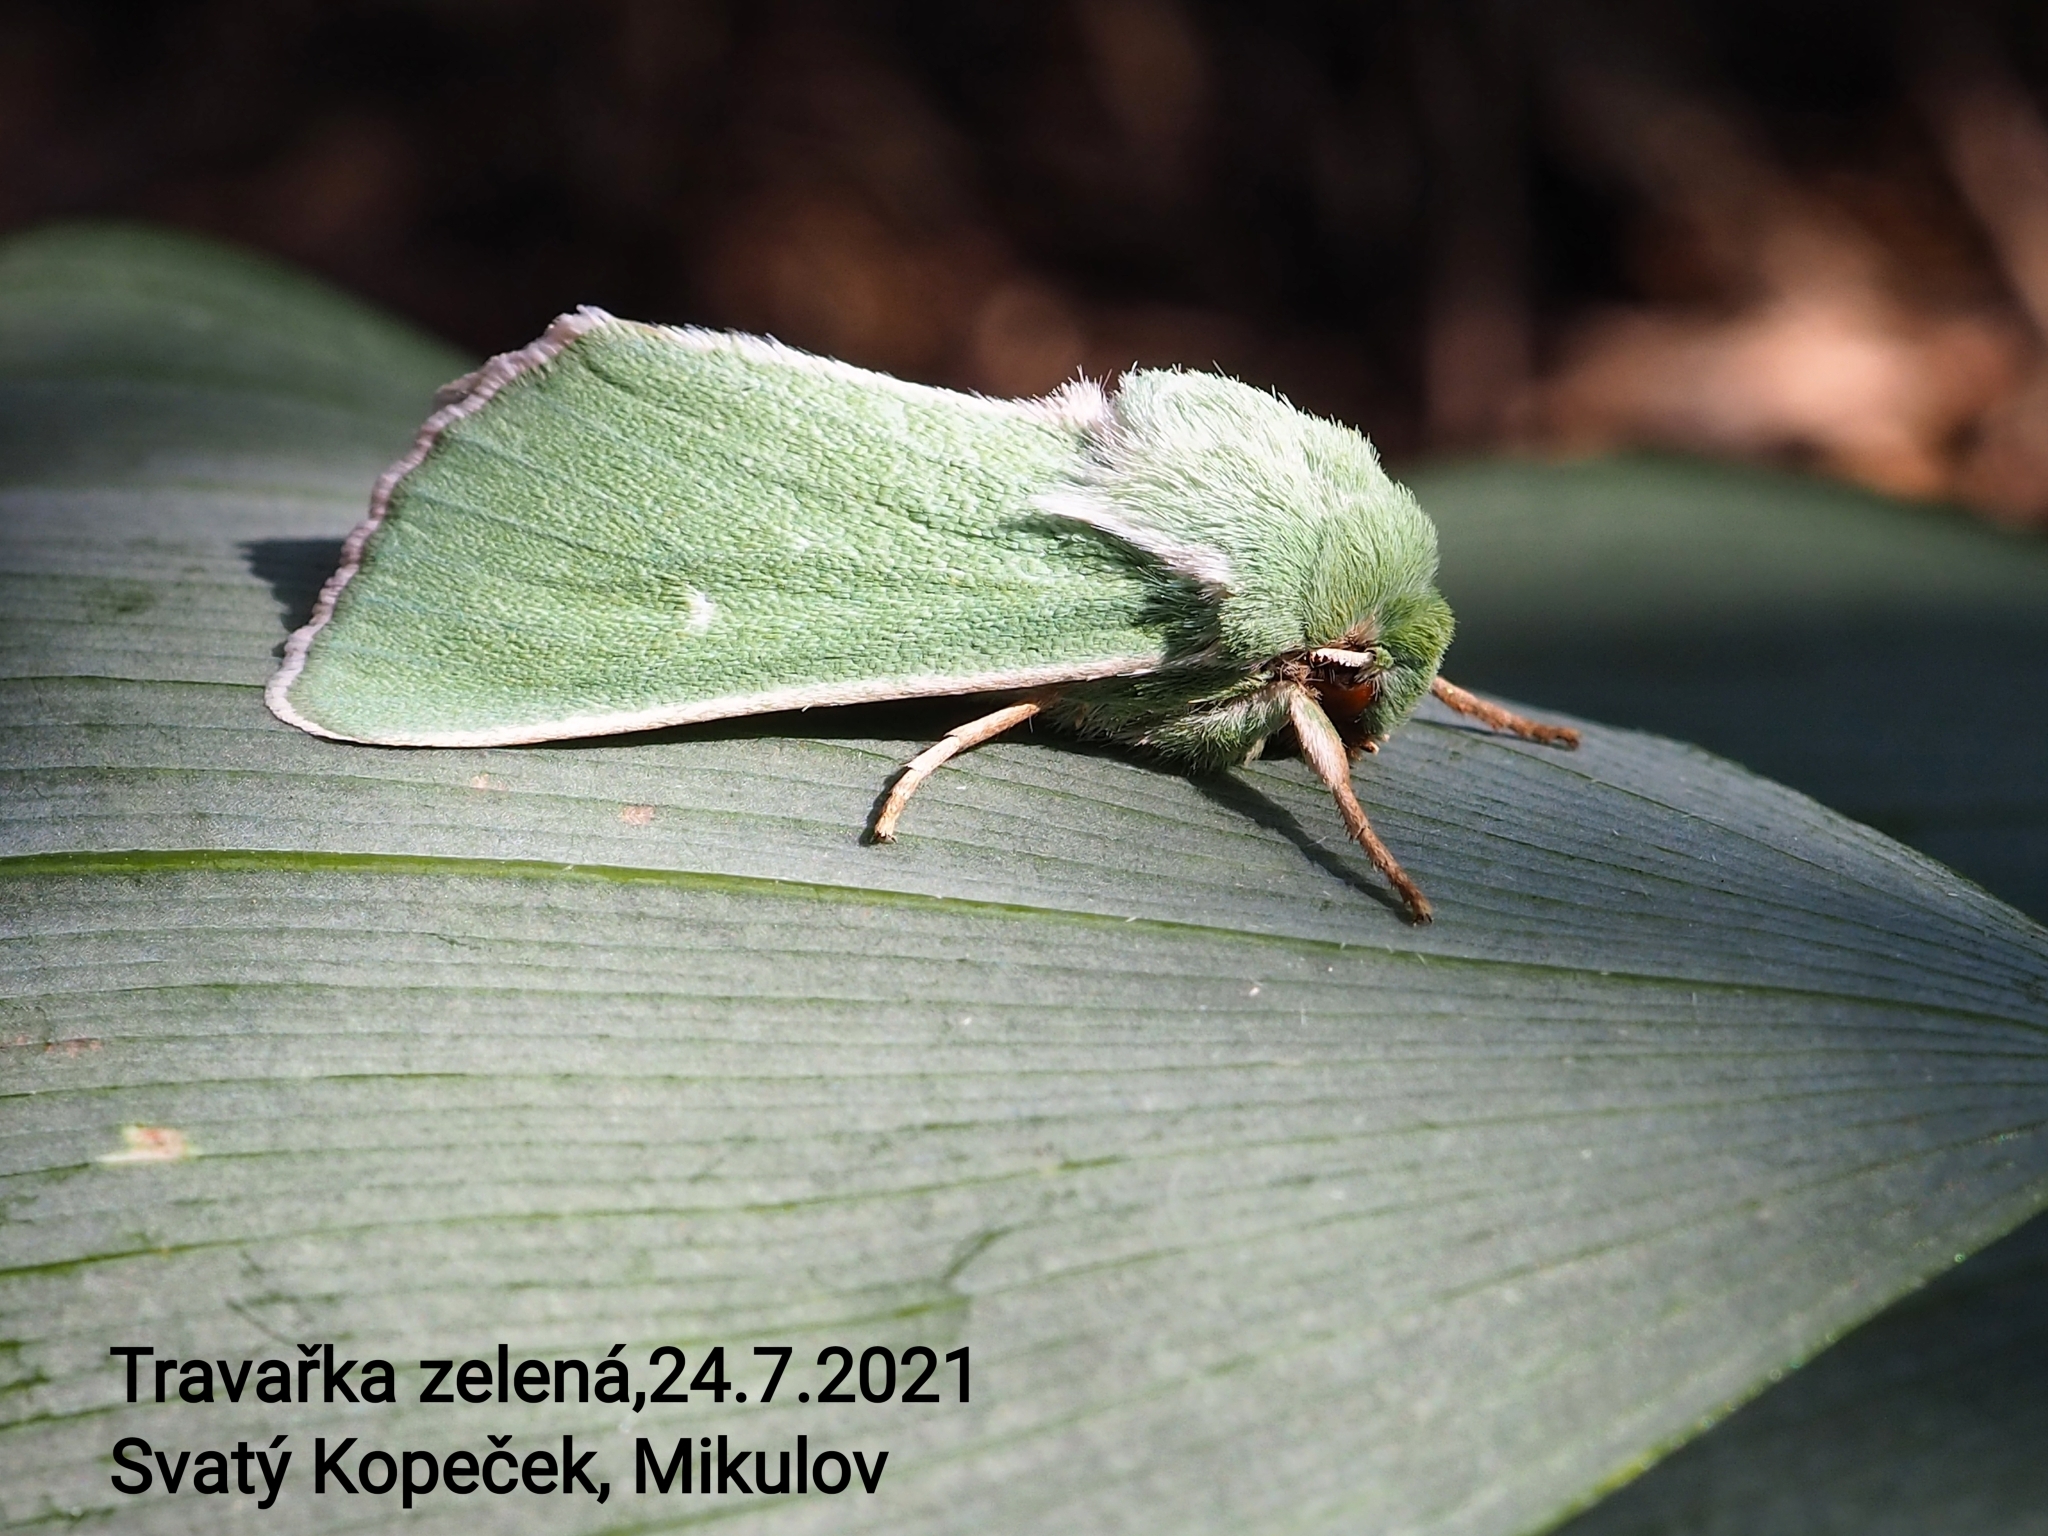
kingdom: Animalia
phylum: Arthropoda
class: Insecta
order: Lepidoptera
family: Noctuidae
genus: Calamia
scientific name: Calamia tridens
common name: Burren green
